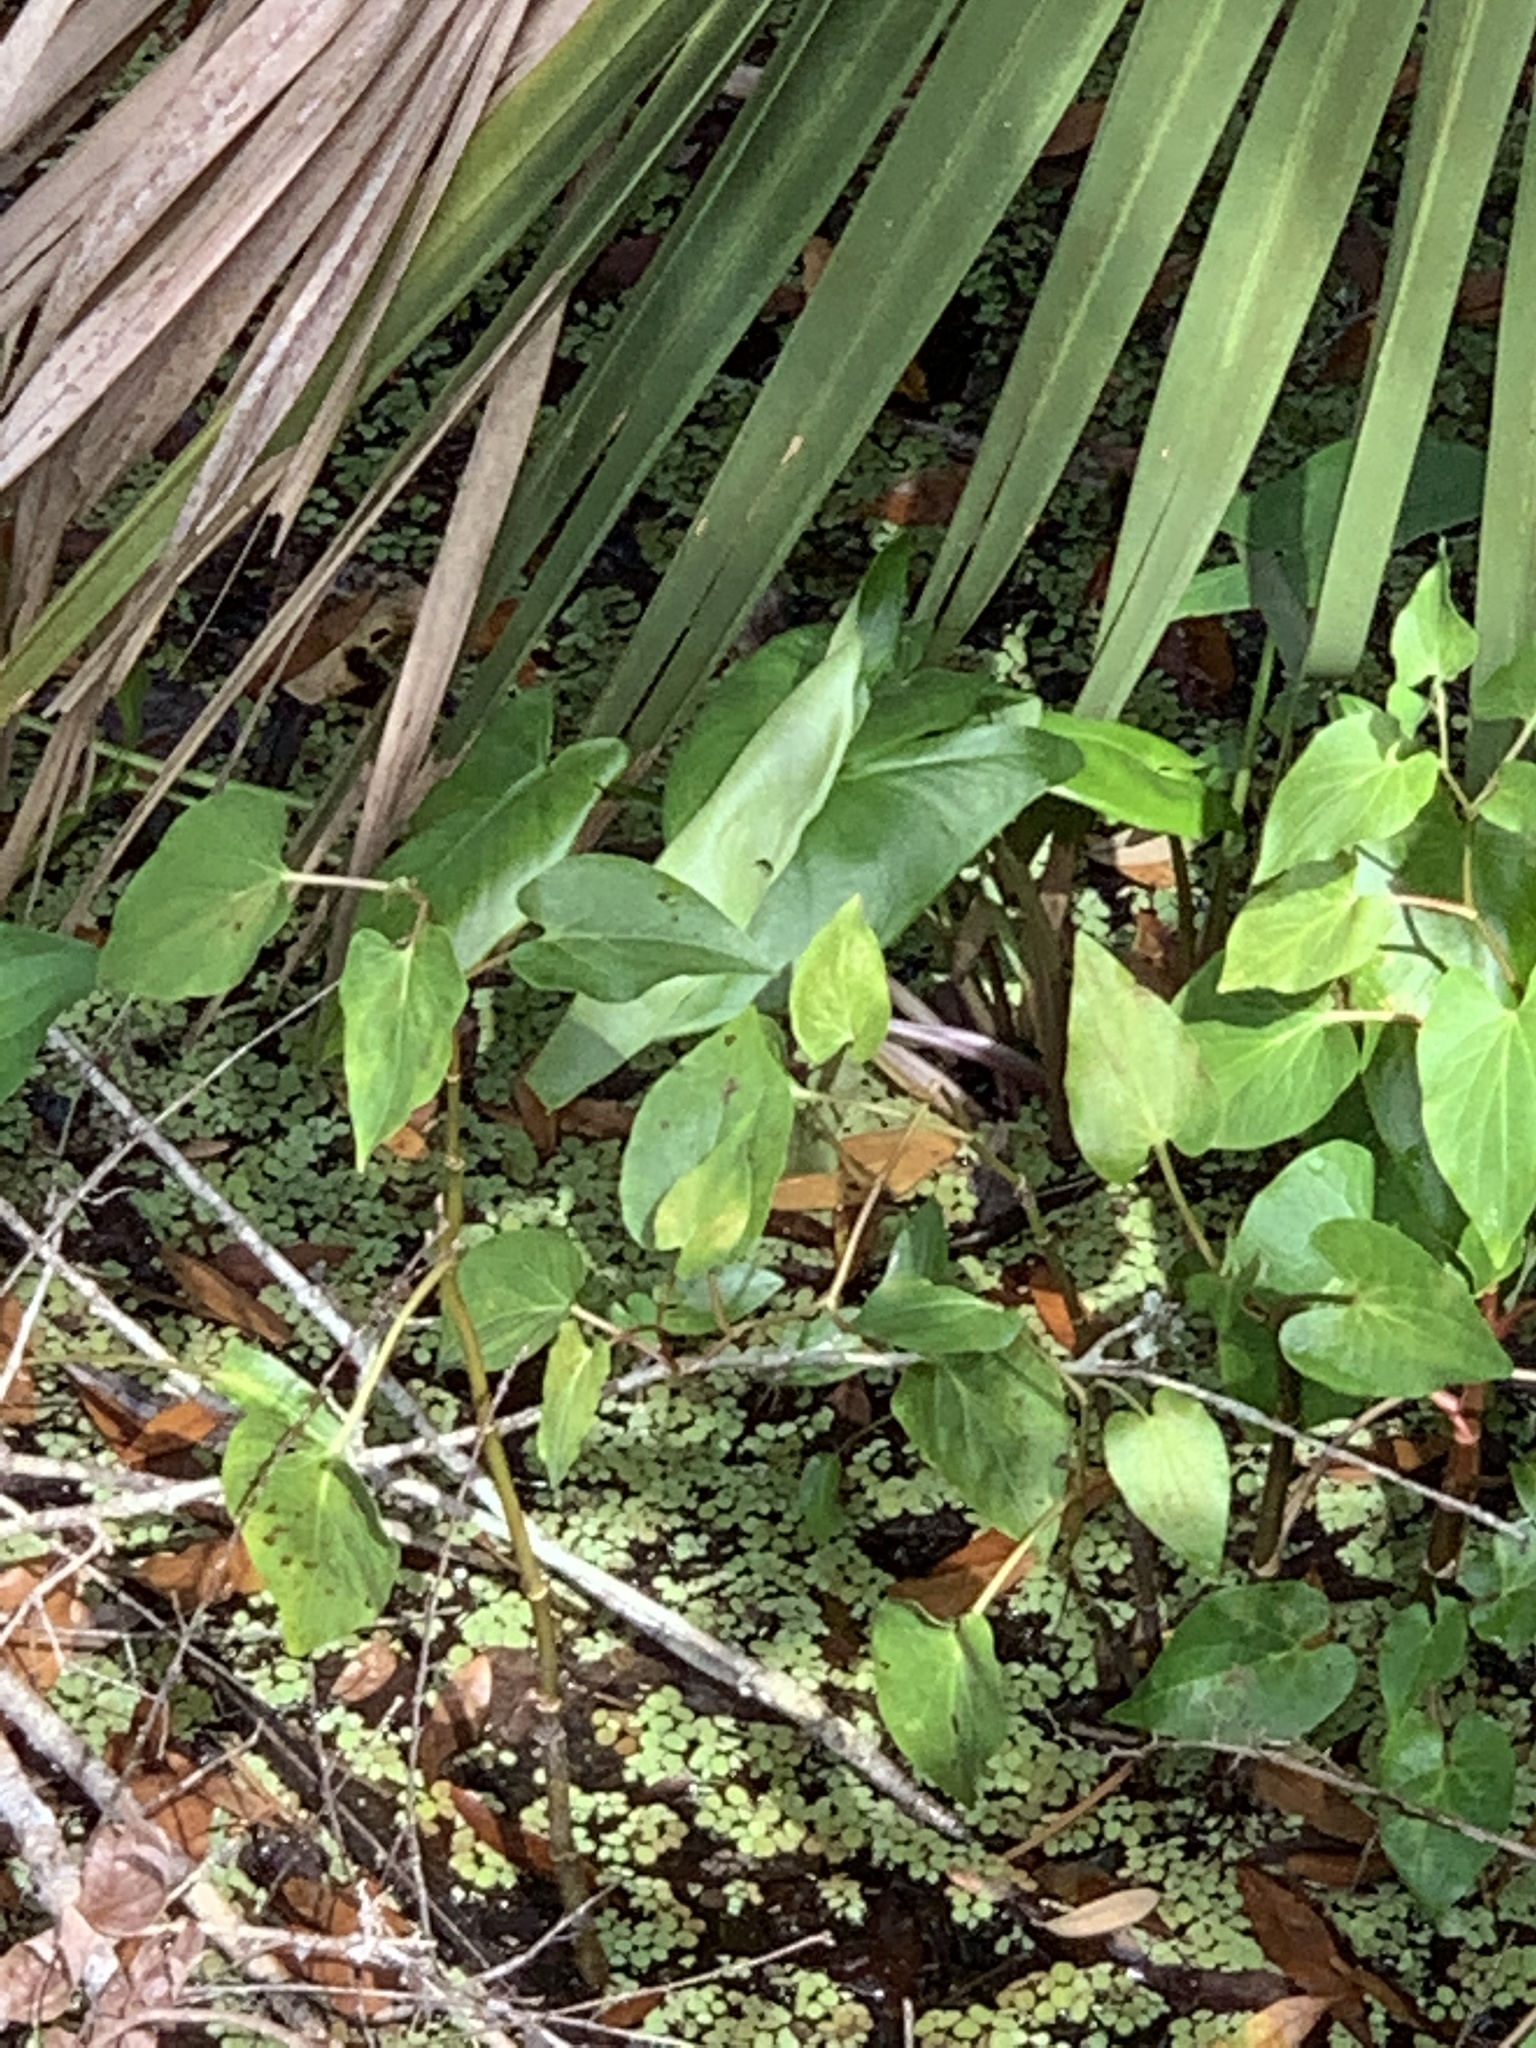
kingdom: Plantae
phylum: Tracheophyta
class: Magnoliopsida
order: Piperales
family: Saururaceae
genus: Saururus
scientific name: Saururus cernuus
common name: Lizard's-tail
